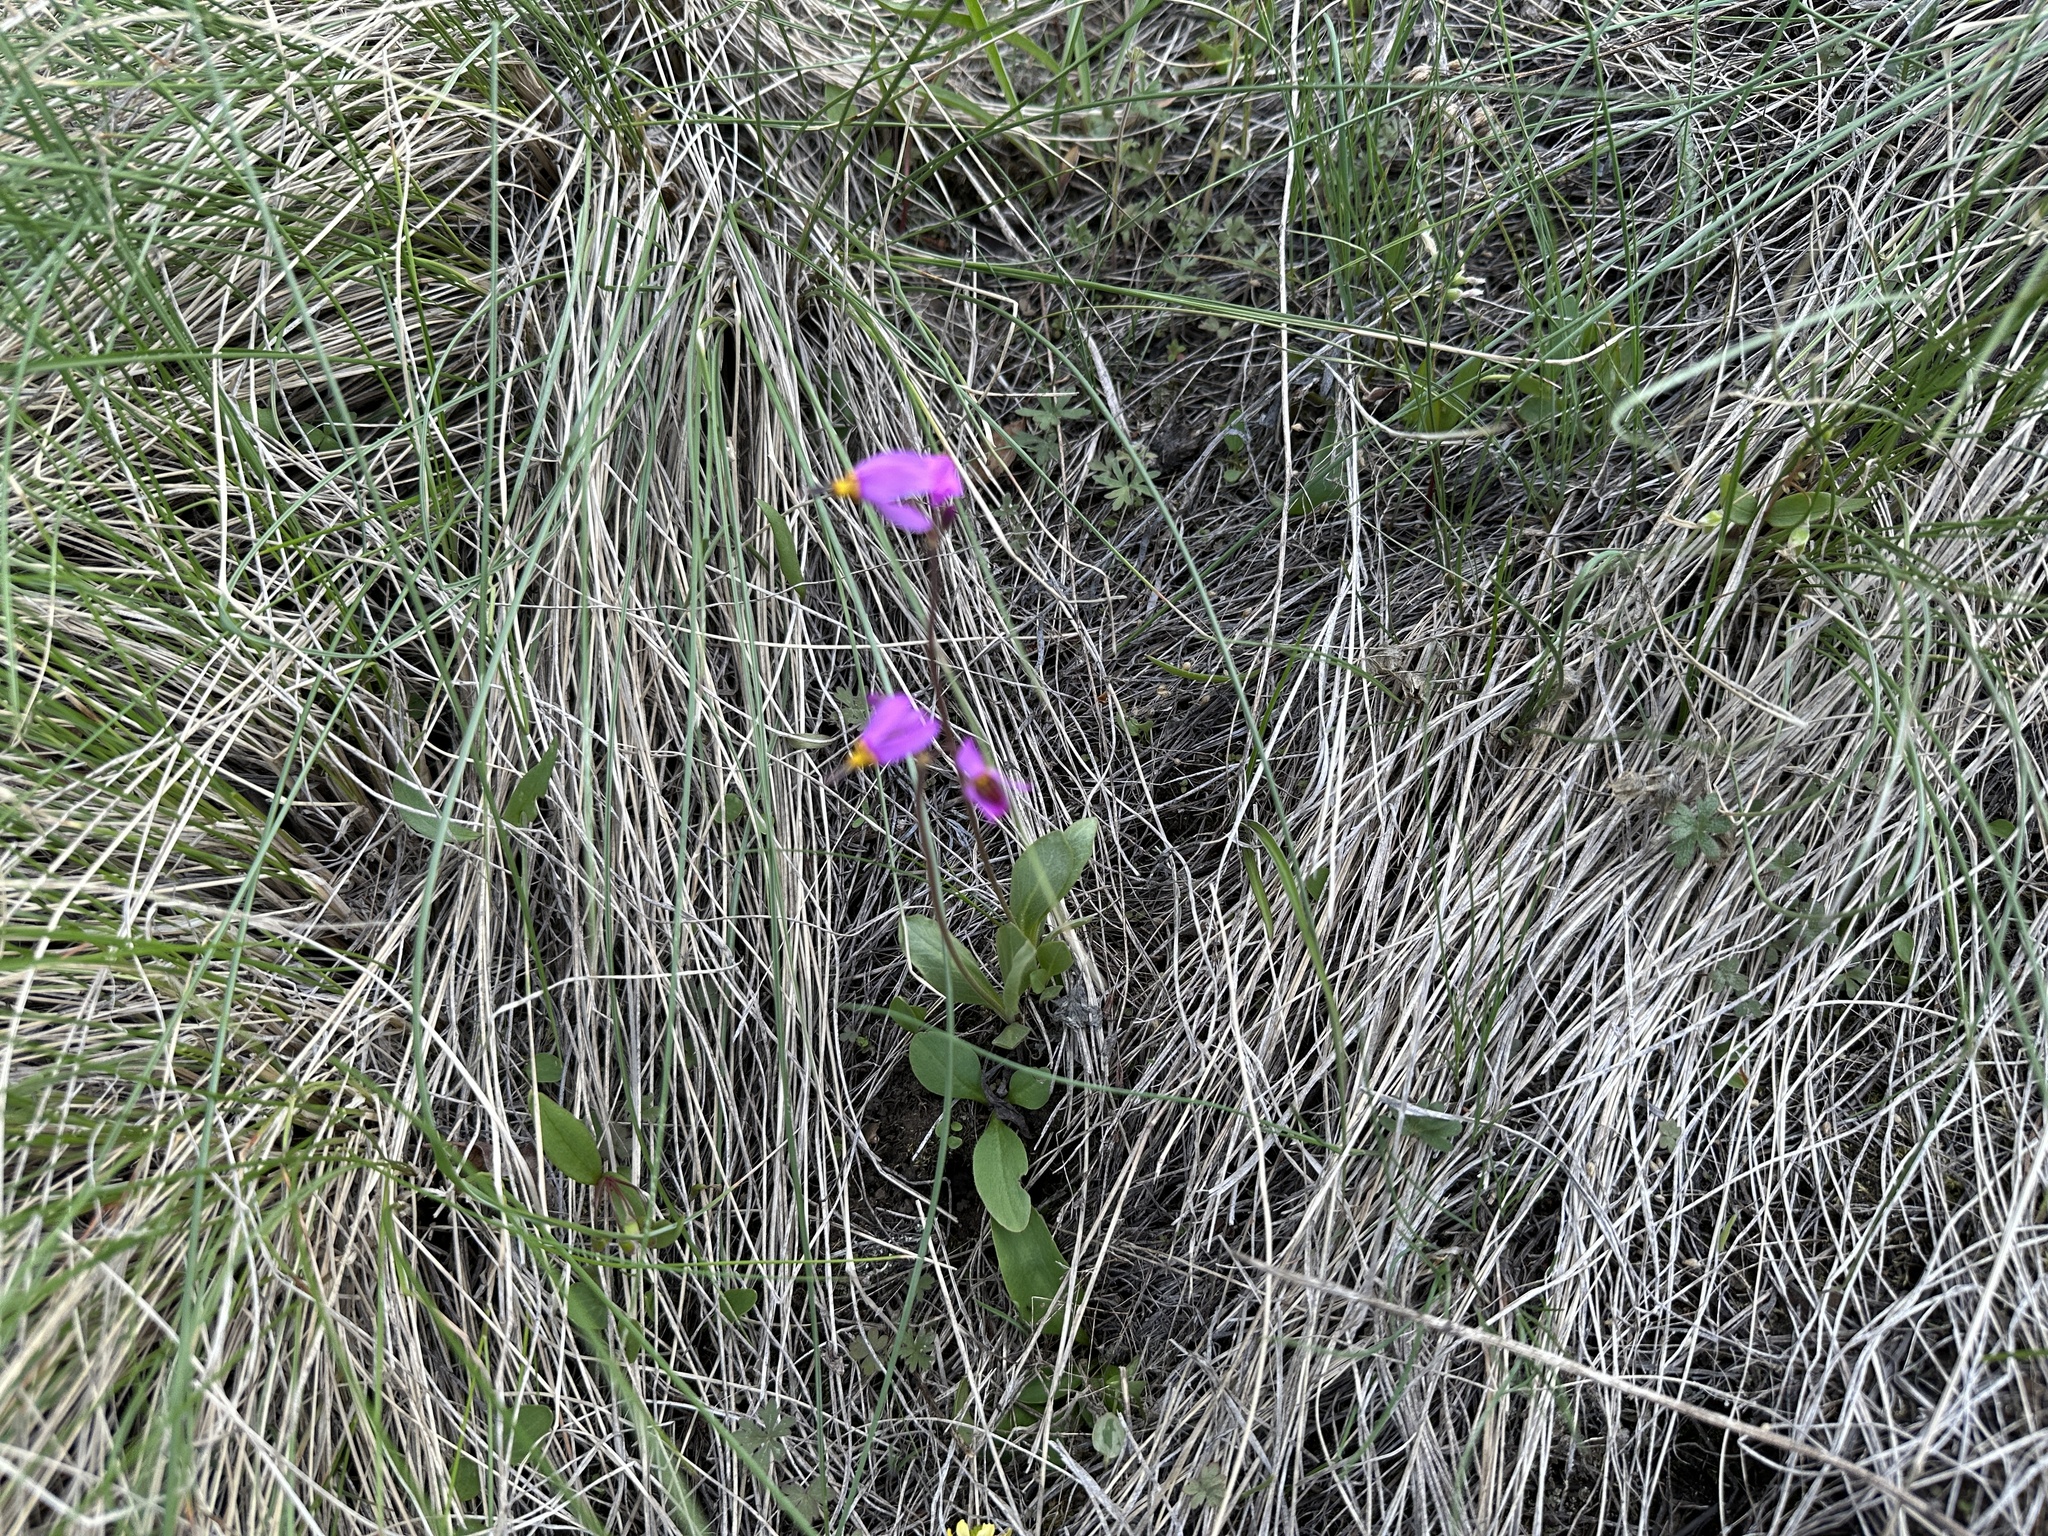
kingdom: Plantae
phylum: Tracheophyta
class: Magnoliopsida
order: Ericales
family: Primulaceae
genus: Dodecatheon
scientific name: Dodecatheon pulchellum
